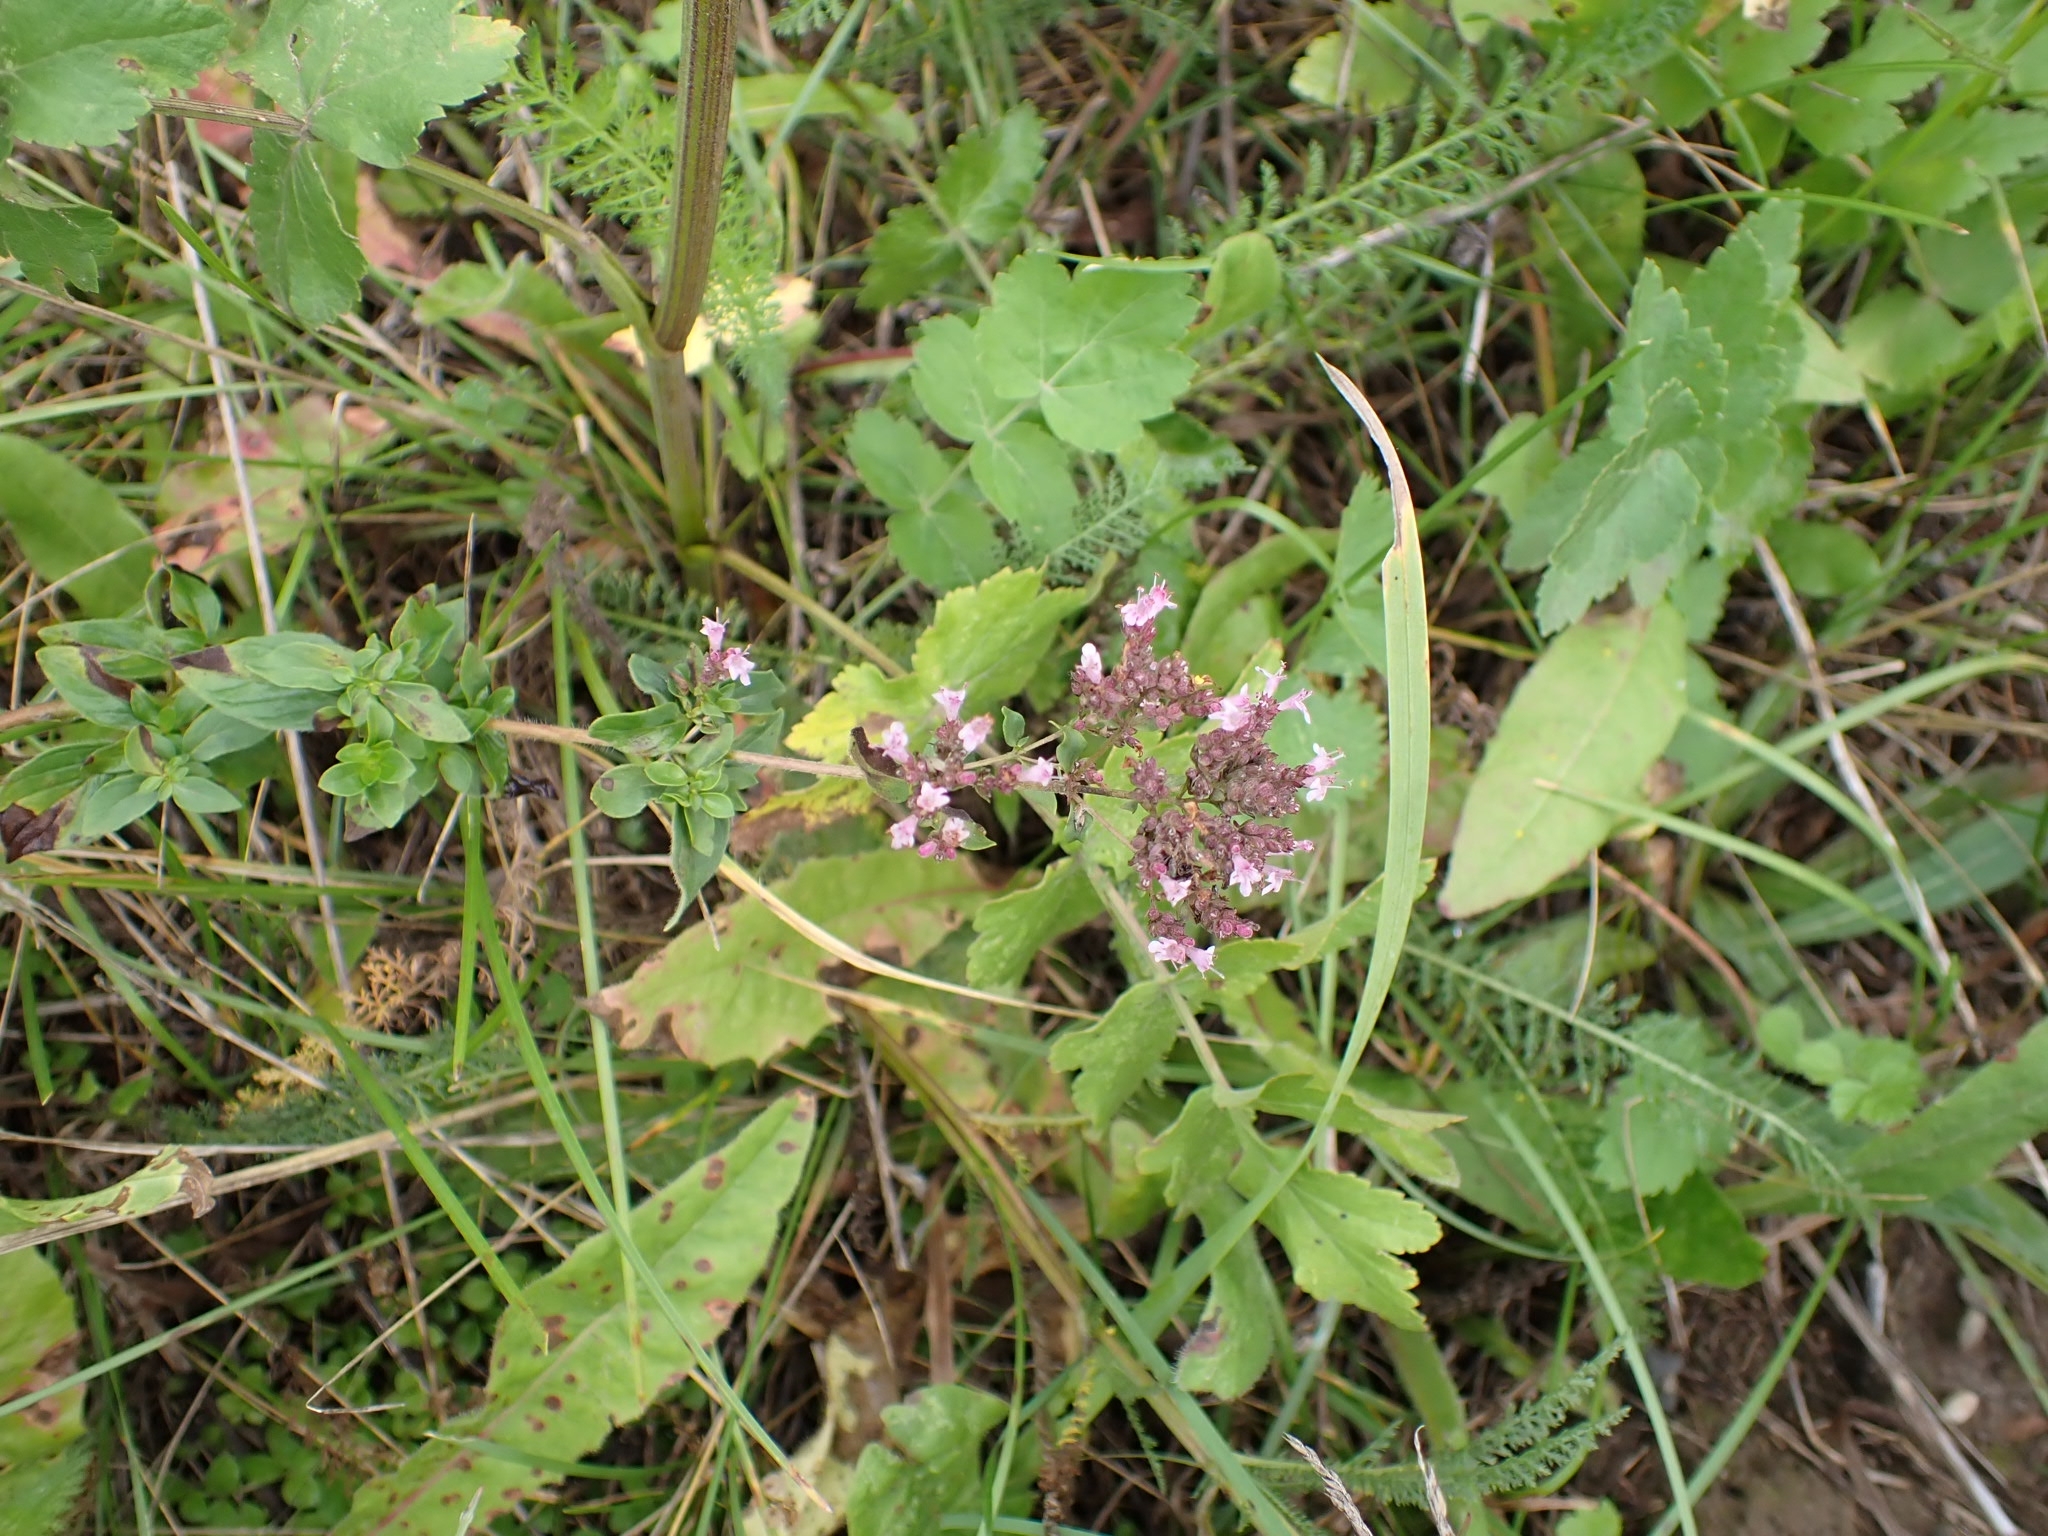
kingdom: Plantae
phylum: Tracheophyta
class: Magnoliopsida
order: Lamiales
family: Lamiaceae
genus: Origanum
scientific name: Origanum vulgare
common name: Wild marjoram
